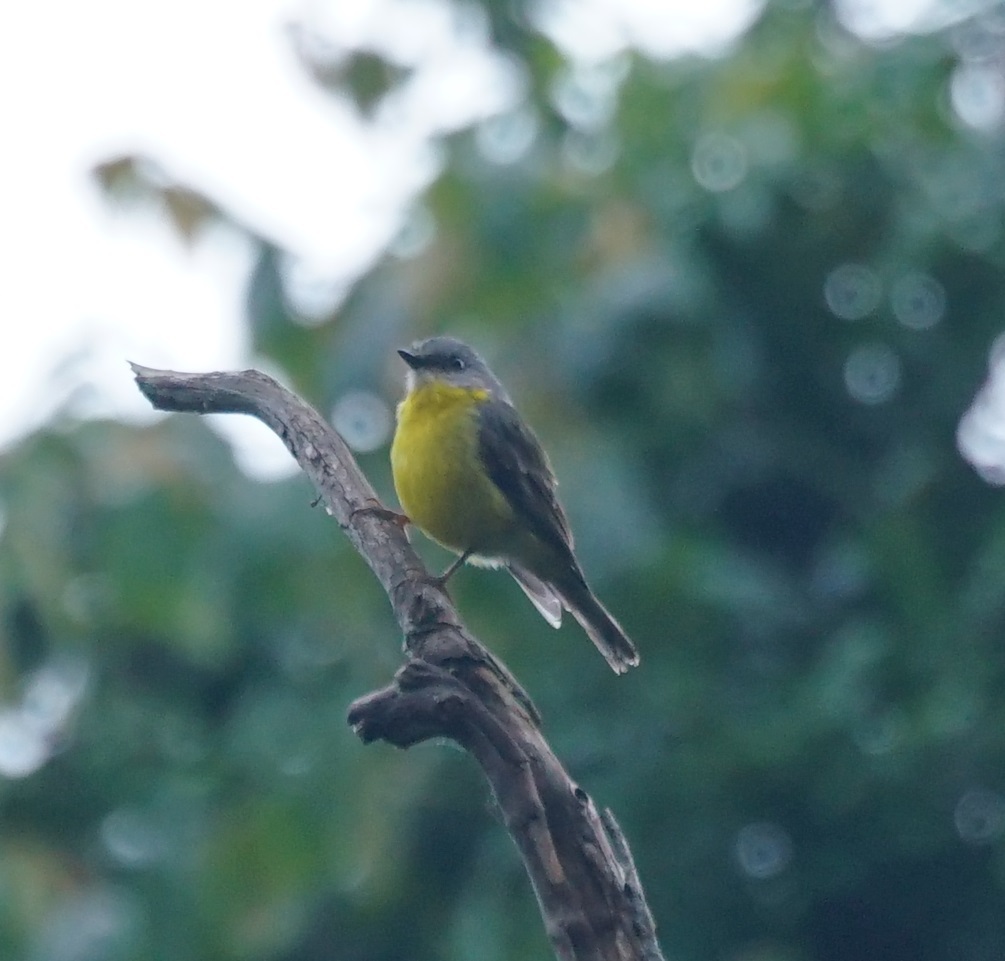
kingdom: Animalia
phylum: Chordata
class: Aves
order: Passeriformes
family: Petroicidae
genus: Eopsaltria
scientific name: Eopsaltria australis
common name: Eastern yellow robin
